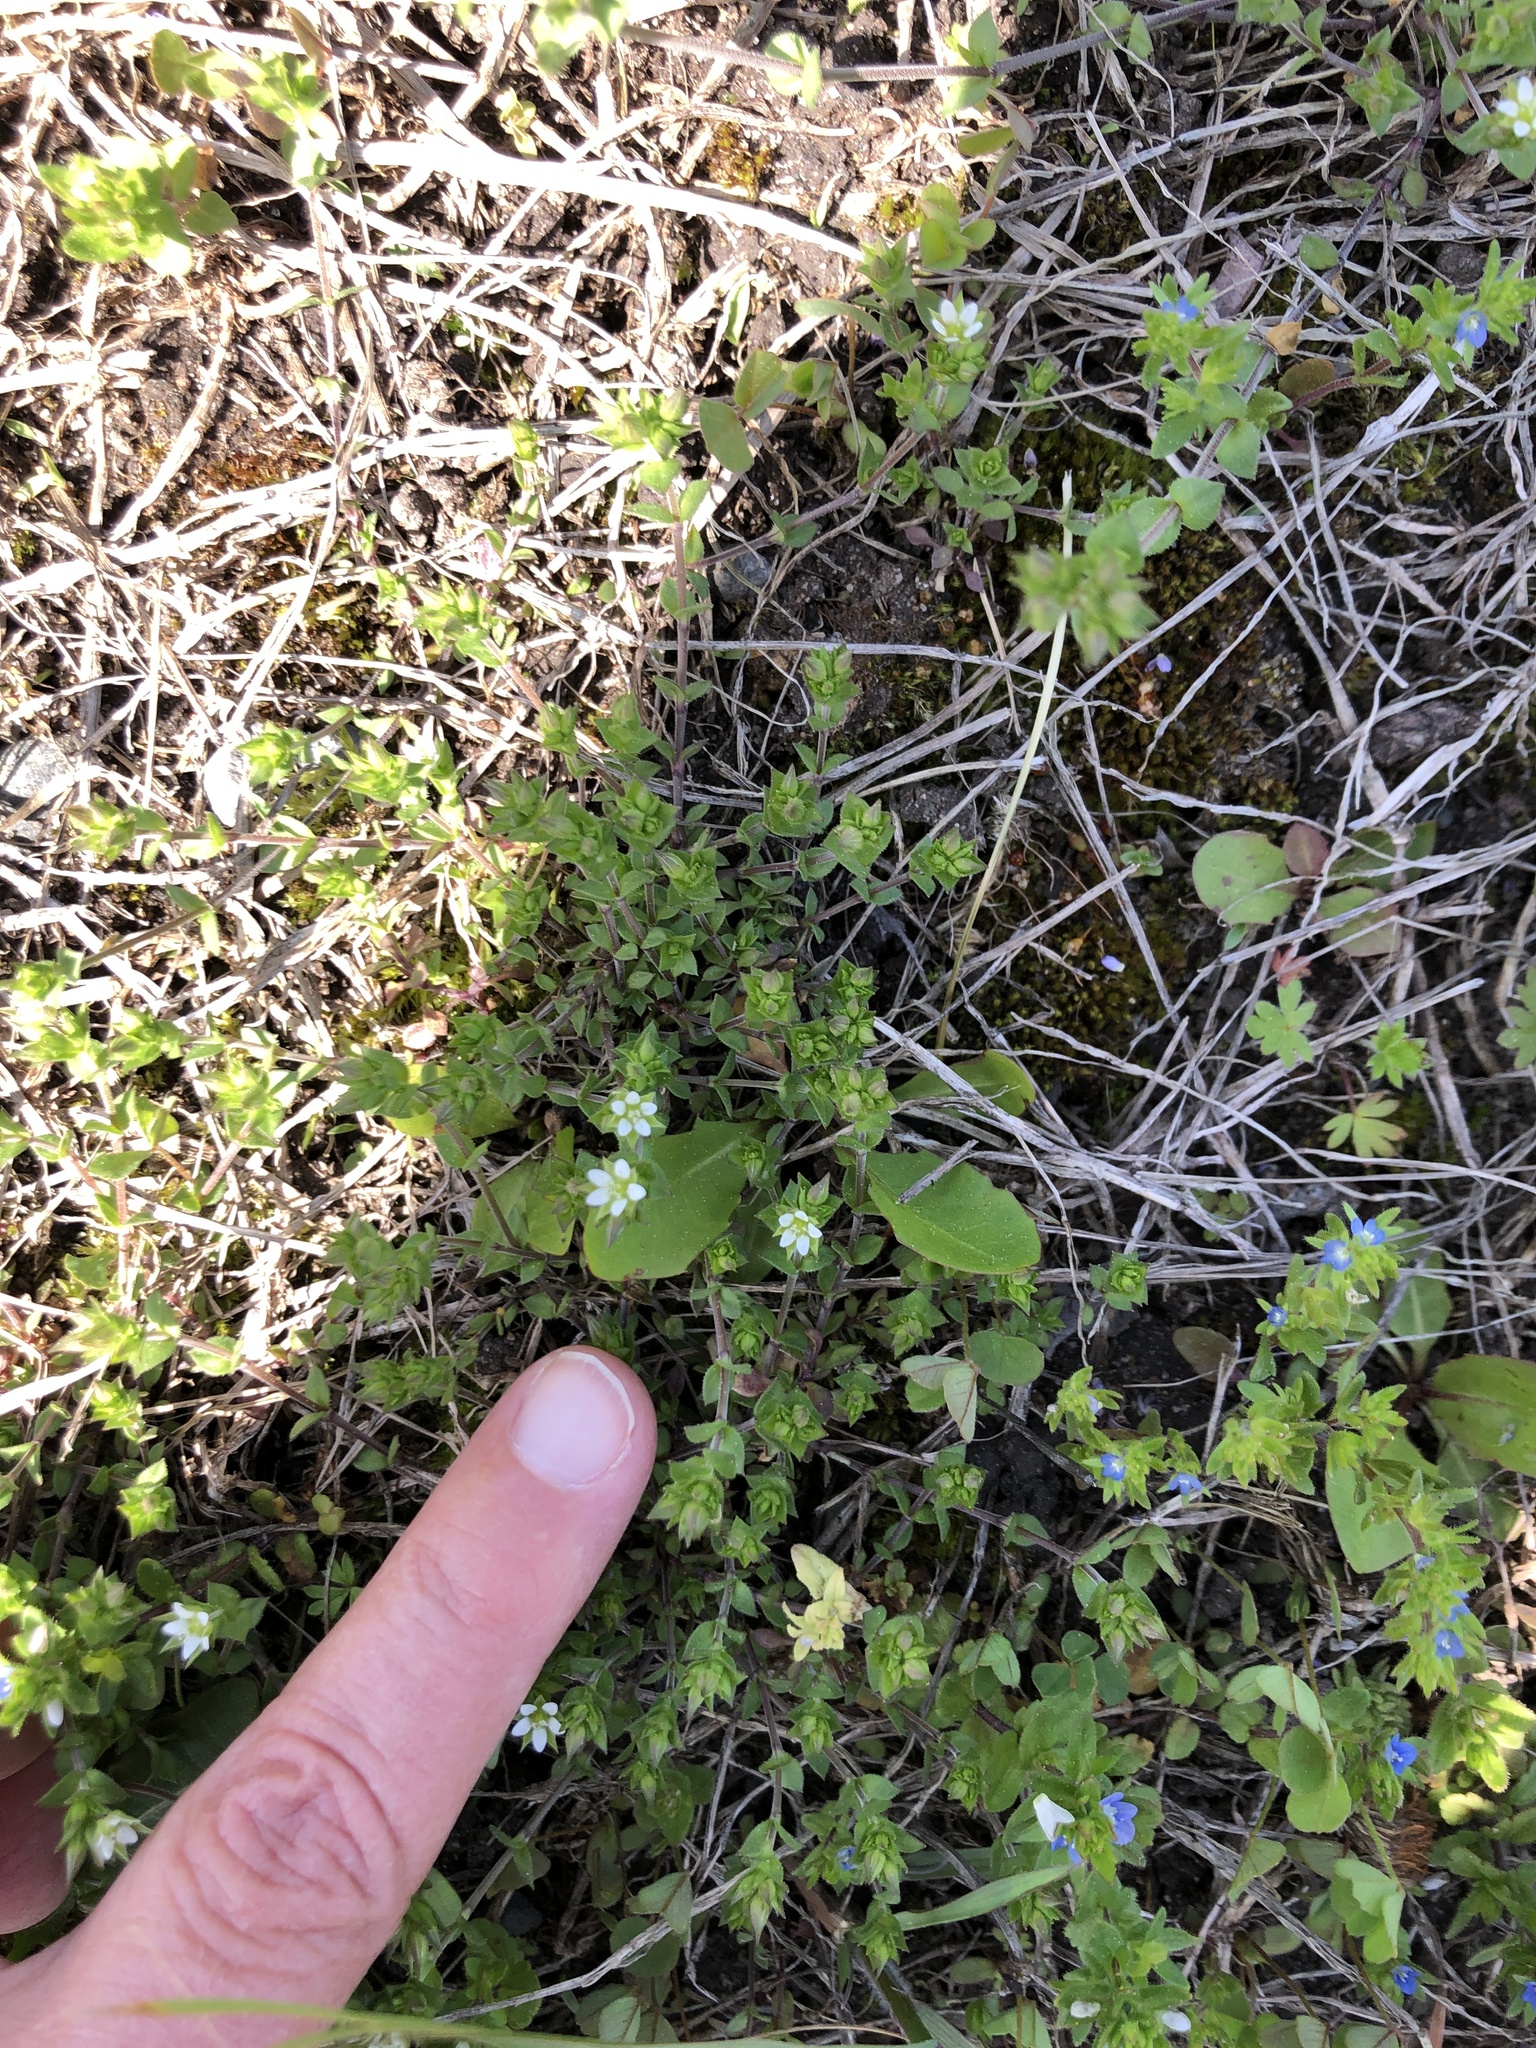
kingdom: Plantae
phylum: Tracheophyta
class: Magnoliopsida
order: Caryophyllales
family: Caryophyllaceae
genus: Arenaria
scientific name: Arenaria serpyllifolia
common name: Thyme-leaved sandwort
